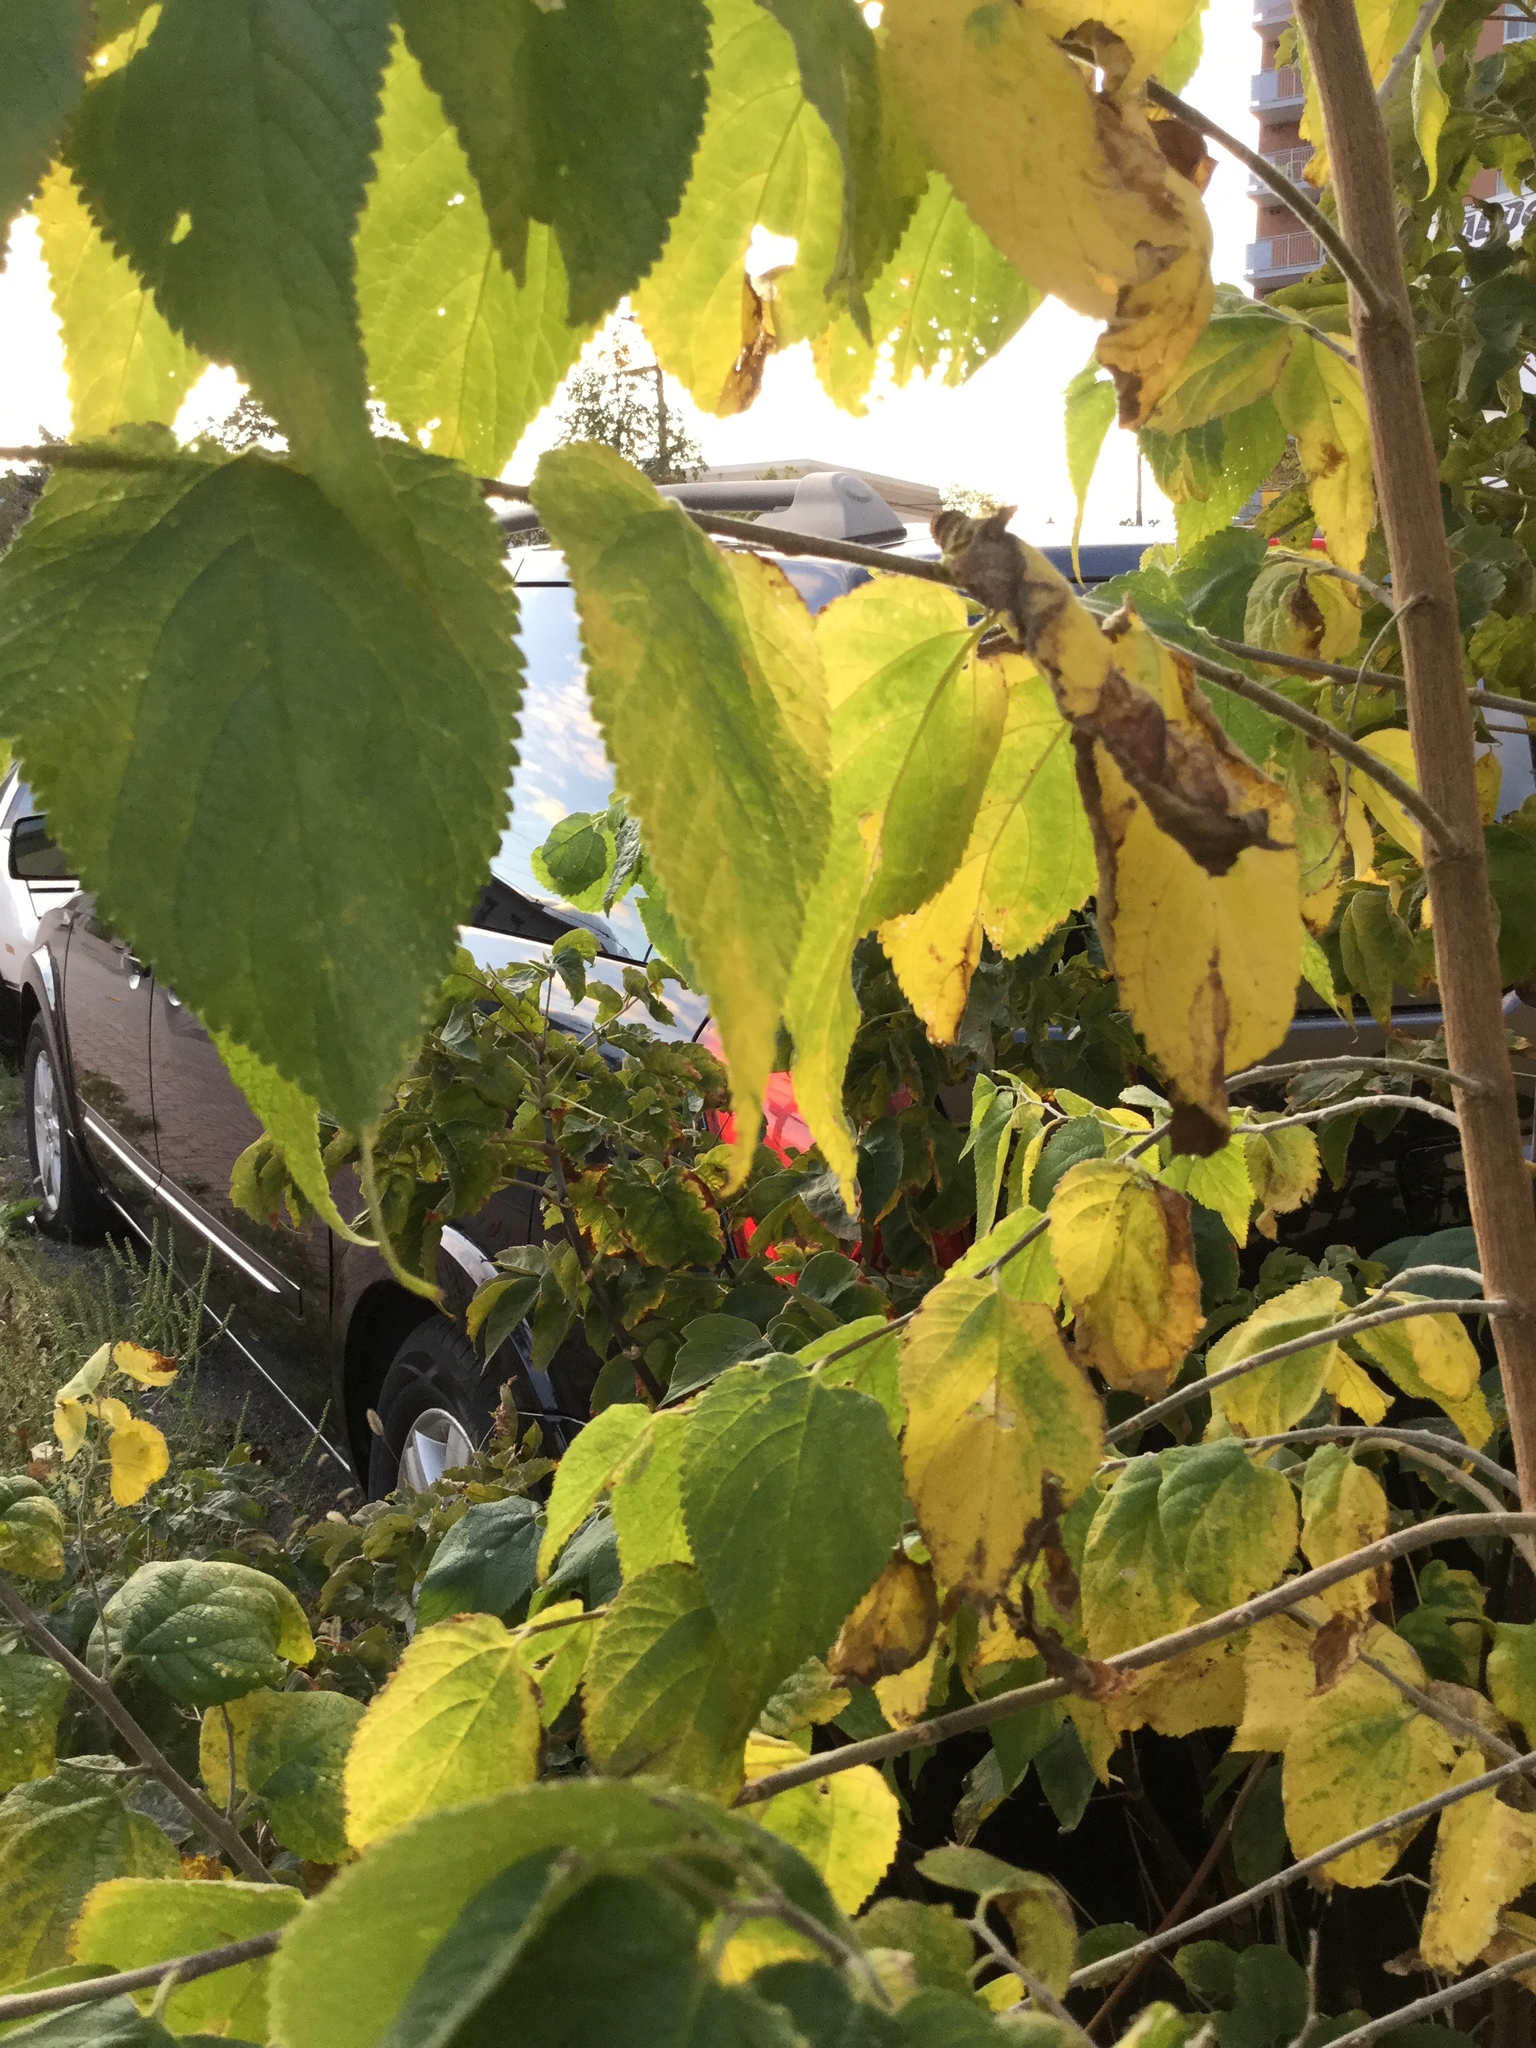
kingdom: Plantae
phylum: Tracheophyta
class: Magnoliopsida
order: Rosales
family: Cannabaceae
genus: Celtis
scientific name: Celtis occidentalis
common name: Common hackberry
